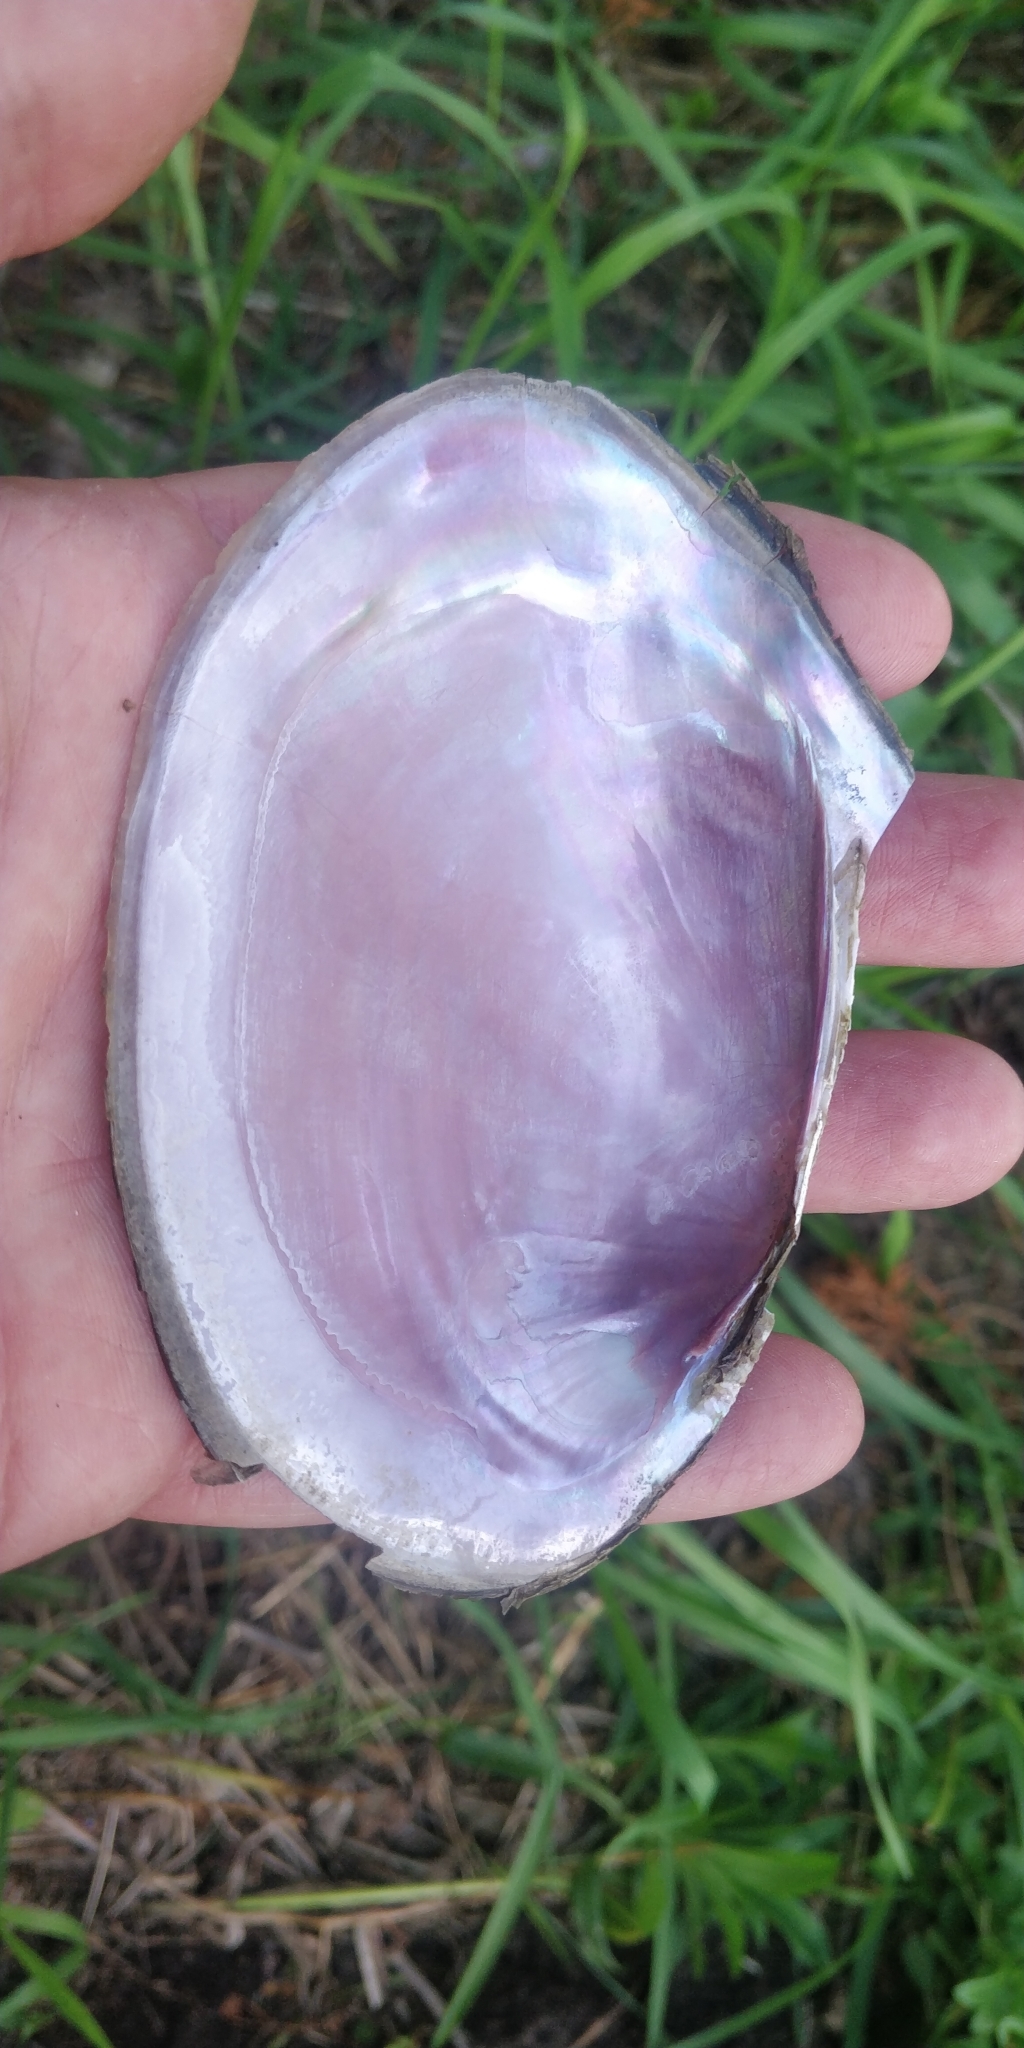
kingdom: Animalia
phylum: Mollusca
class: Bivalvia
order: Unionida
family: Unionidae
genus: Potamilus
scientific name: Potamilus ohiensis
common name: Pink papershell
